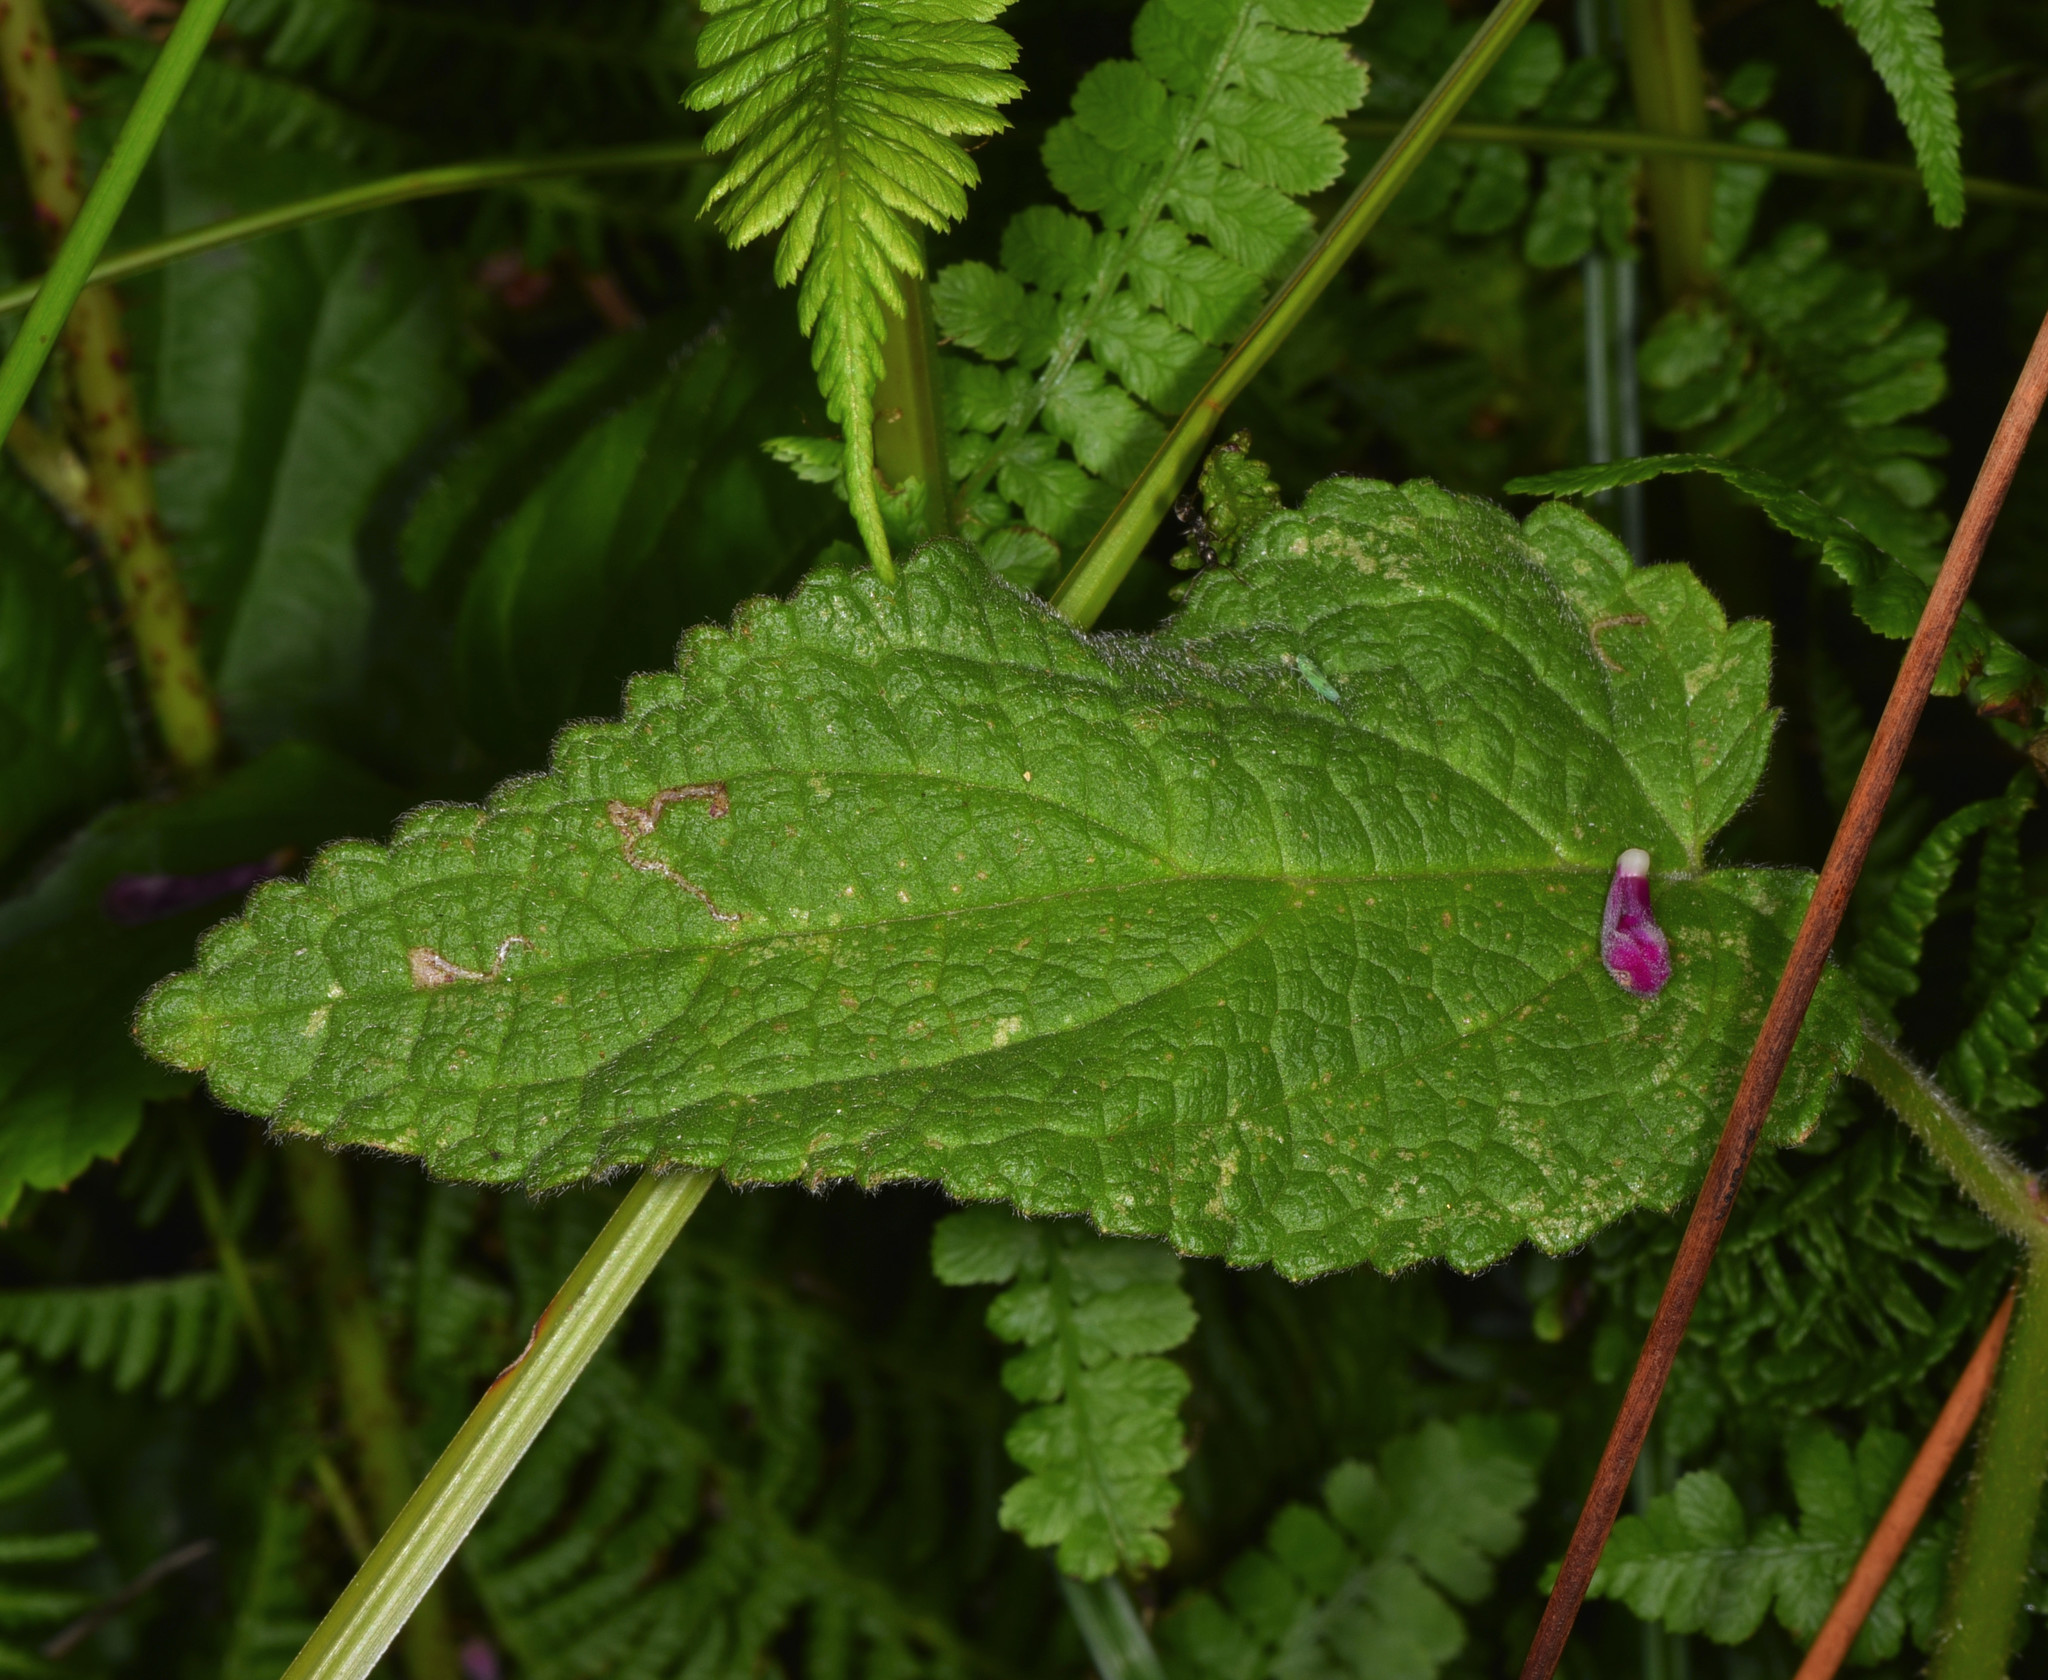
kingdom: Plantae
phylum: Tracheophyta
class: Magnoliopsida
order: Lamiales
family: Lamiaceae
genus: Stachys
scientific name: Stachys chamissonis
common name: Coastal hedge-nettle
